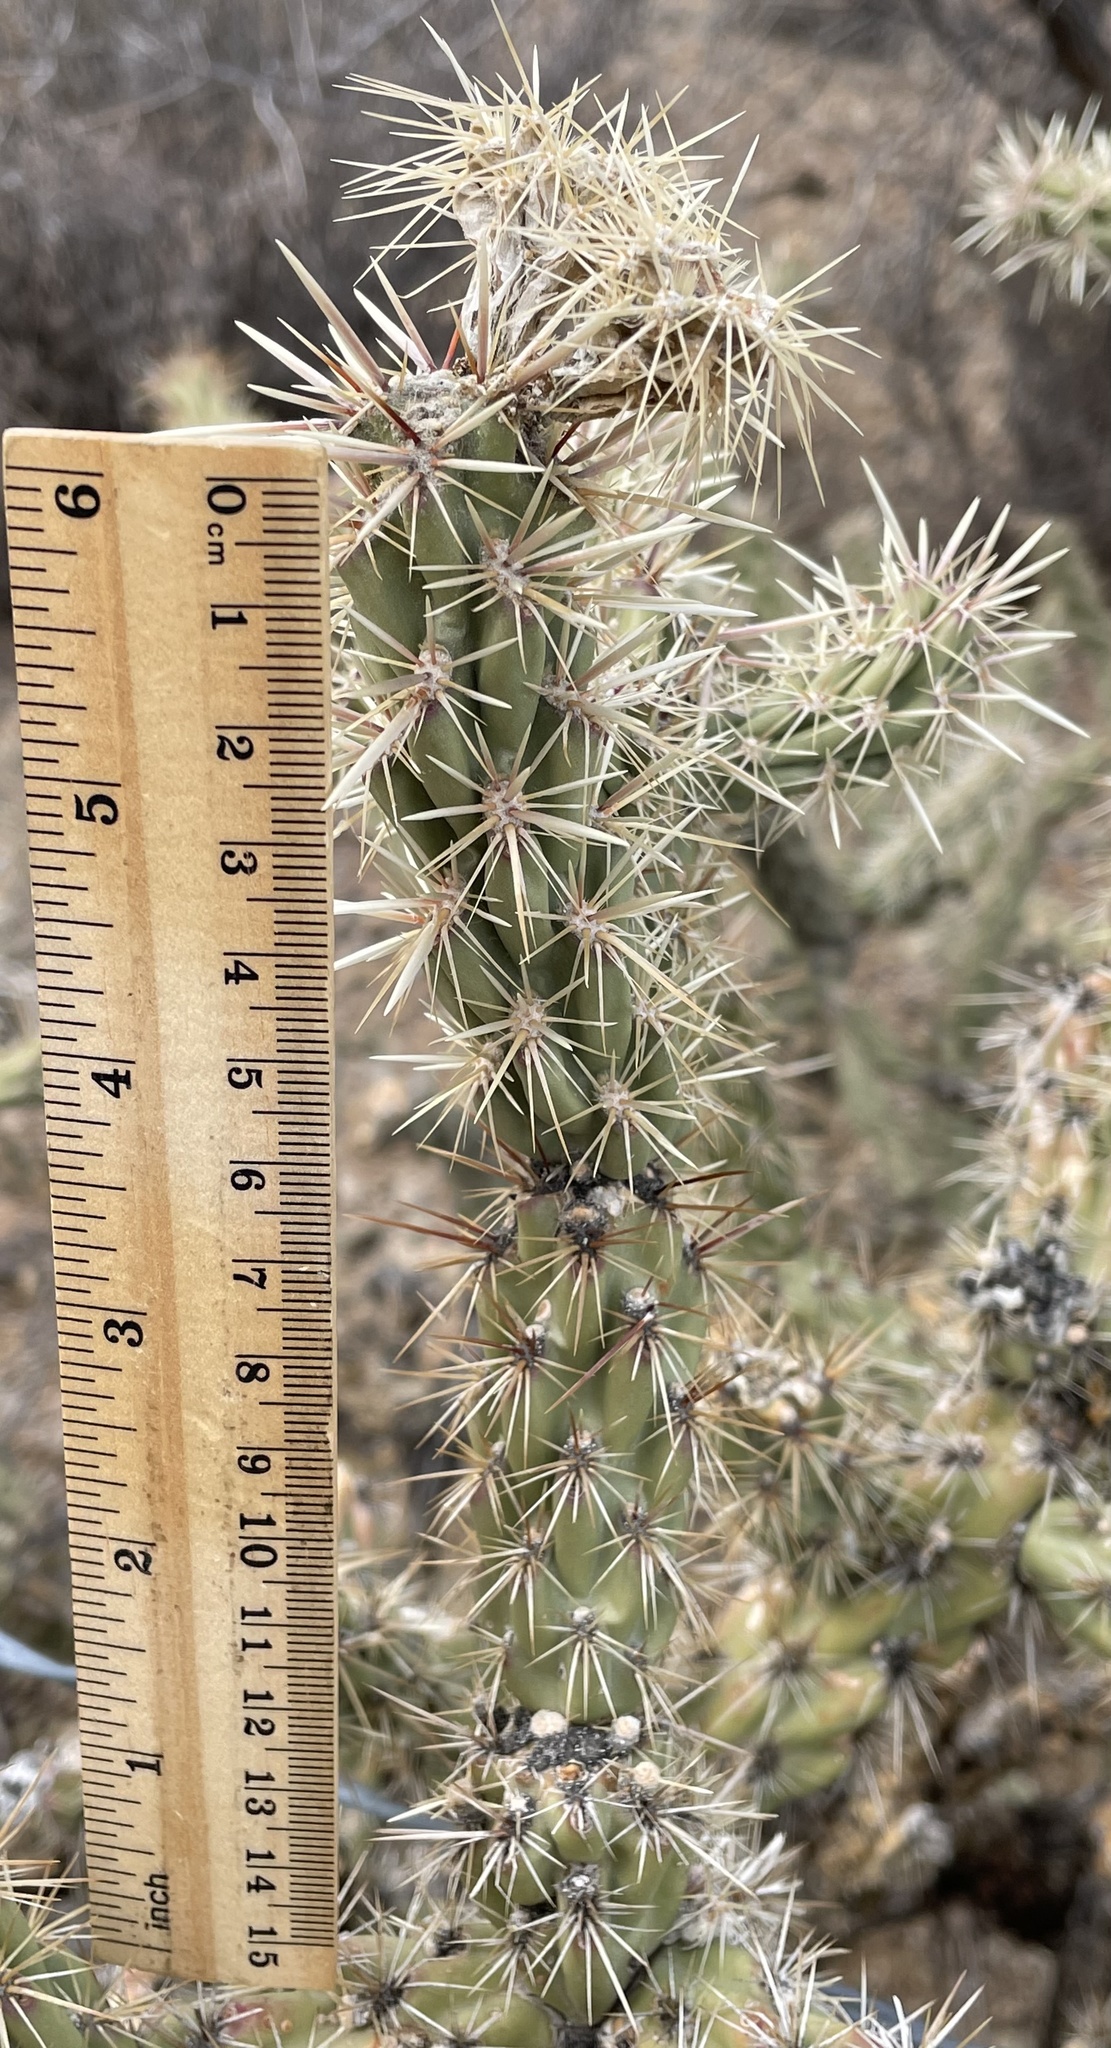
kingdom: Plantae
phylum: Tracheophyta
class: Magnoliopsida
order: Caryophyllales
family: Cactaceae
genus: Cylindropuntia
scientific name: Cylindropuntia acanthocarpa
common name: Buckhorn cholla
